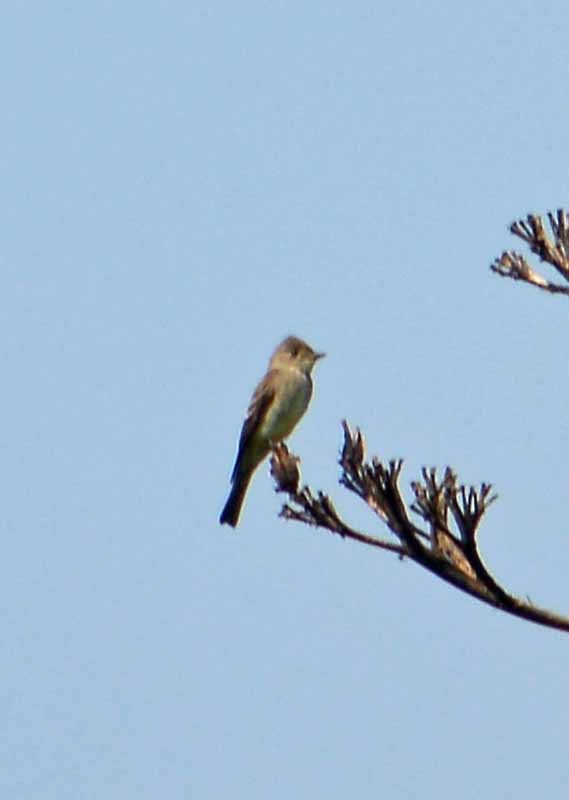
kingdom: Animalia
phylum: Chordata
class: Aves
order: Passeriformes
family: Tyrannidae
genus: Contopus
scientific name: Contopus sordidulus
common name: Western wood-pewee
